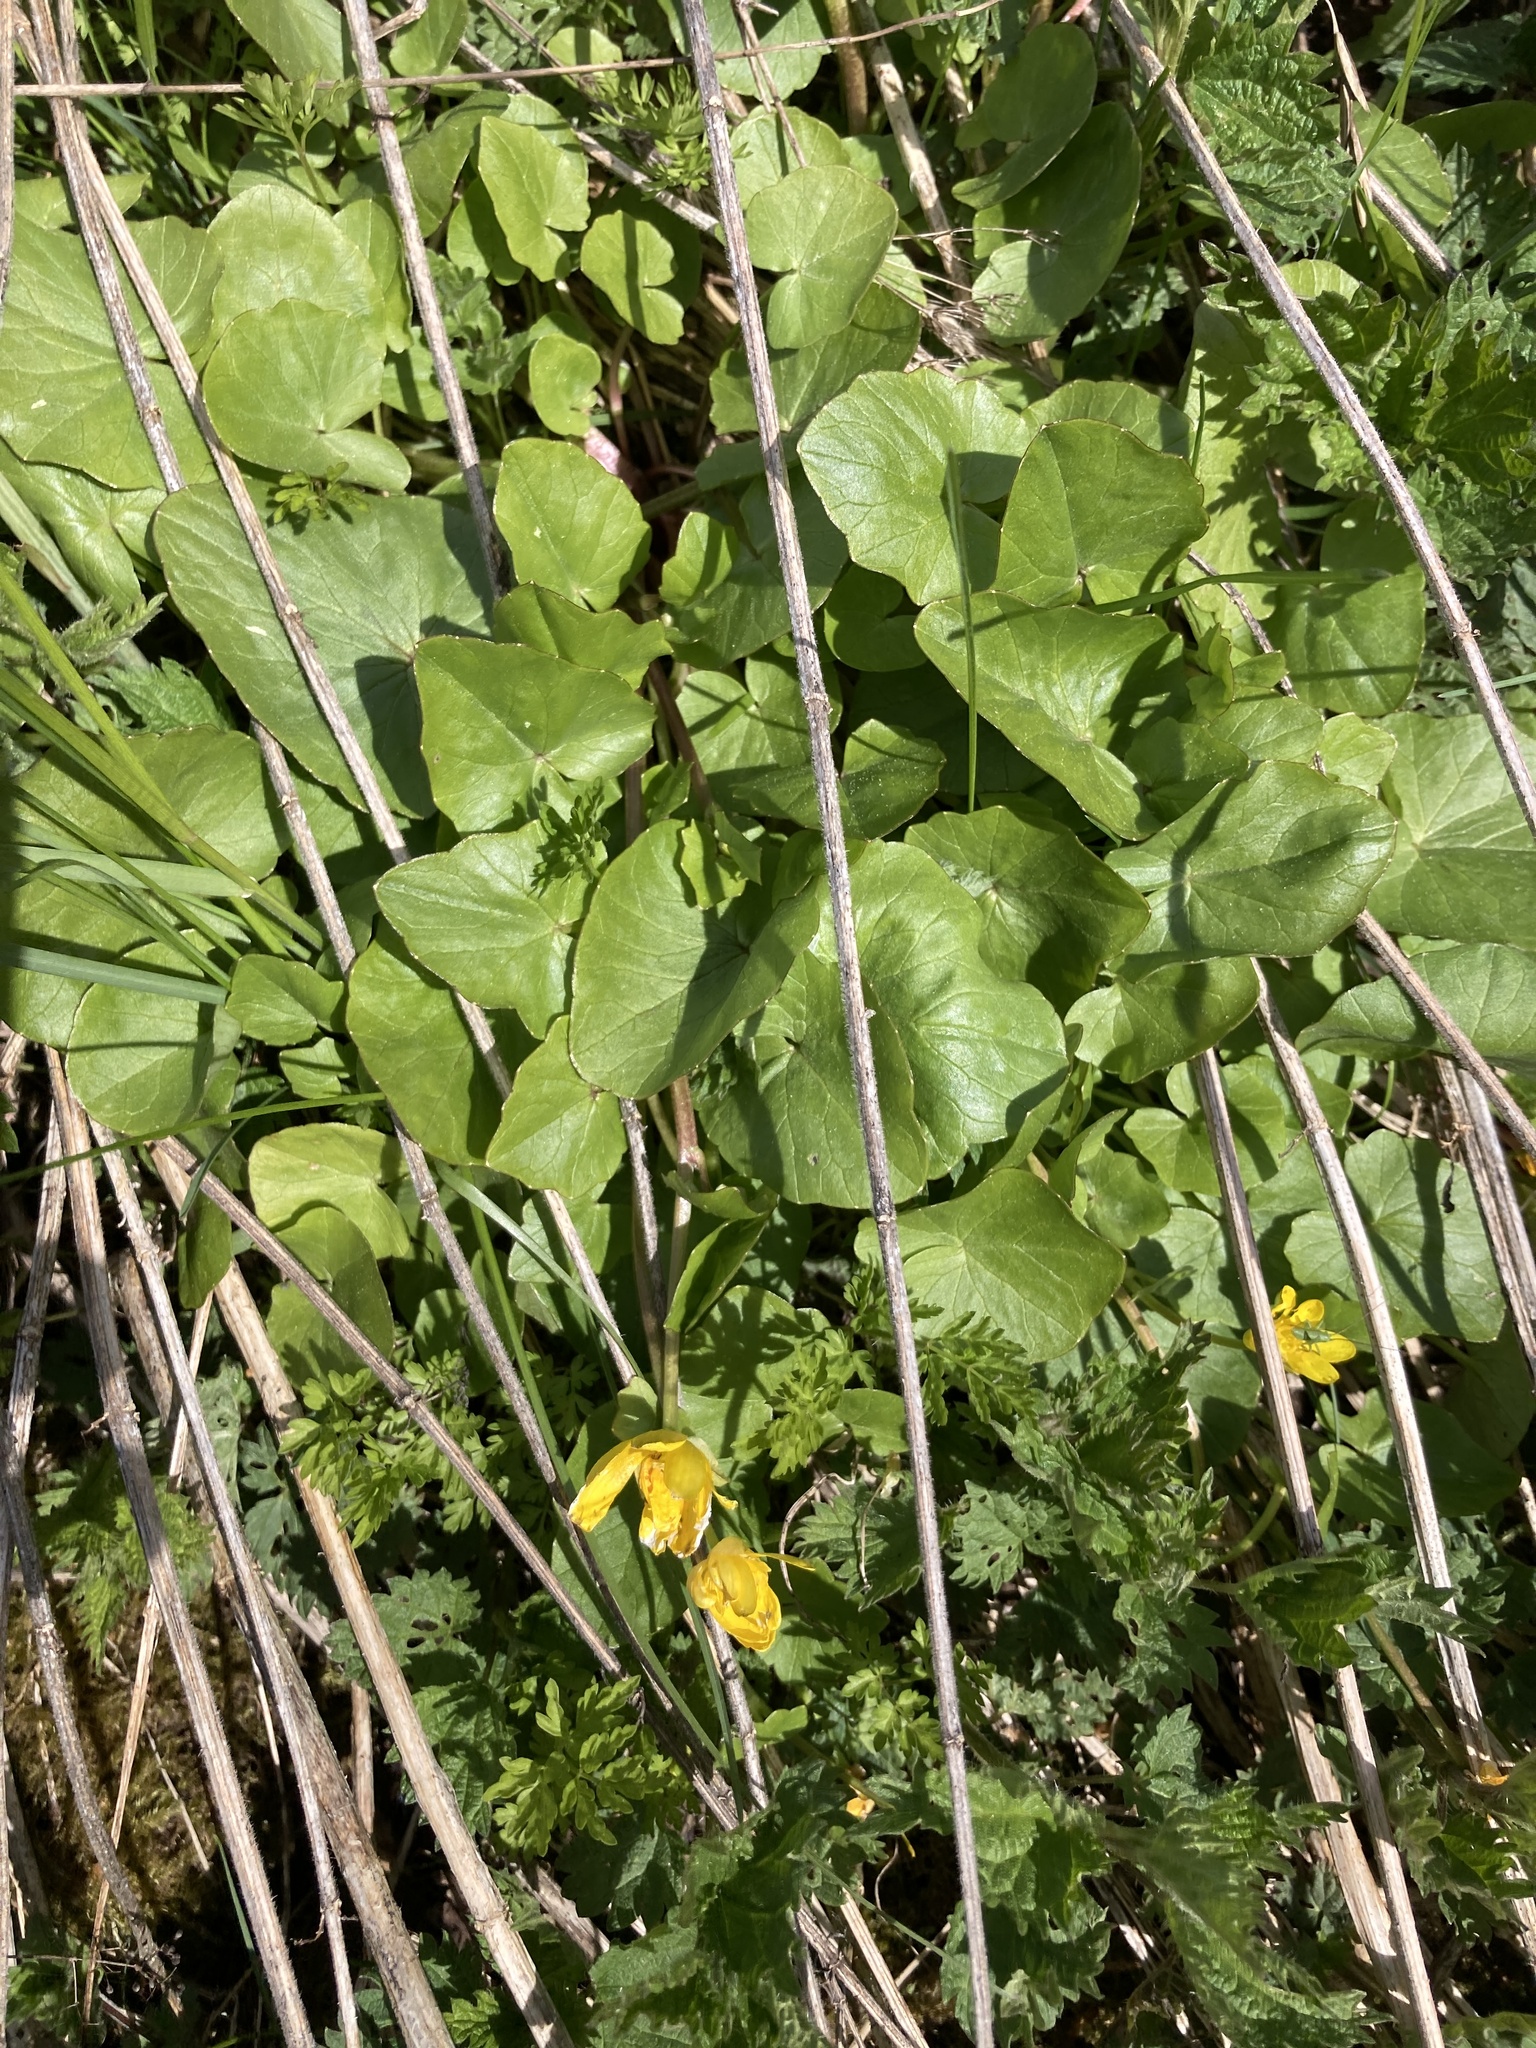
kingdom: Plantae
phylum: Tracheophyta
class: Magnoliopsida
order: Ranunculales
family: Ranunculaceae
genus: Ficaria
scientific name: Ficaria verna
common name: Lesser celandine
